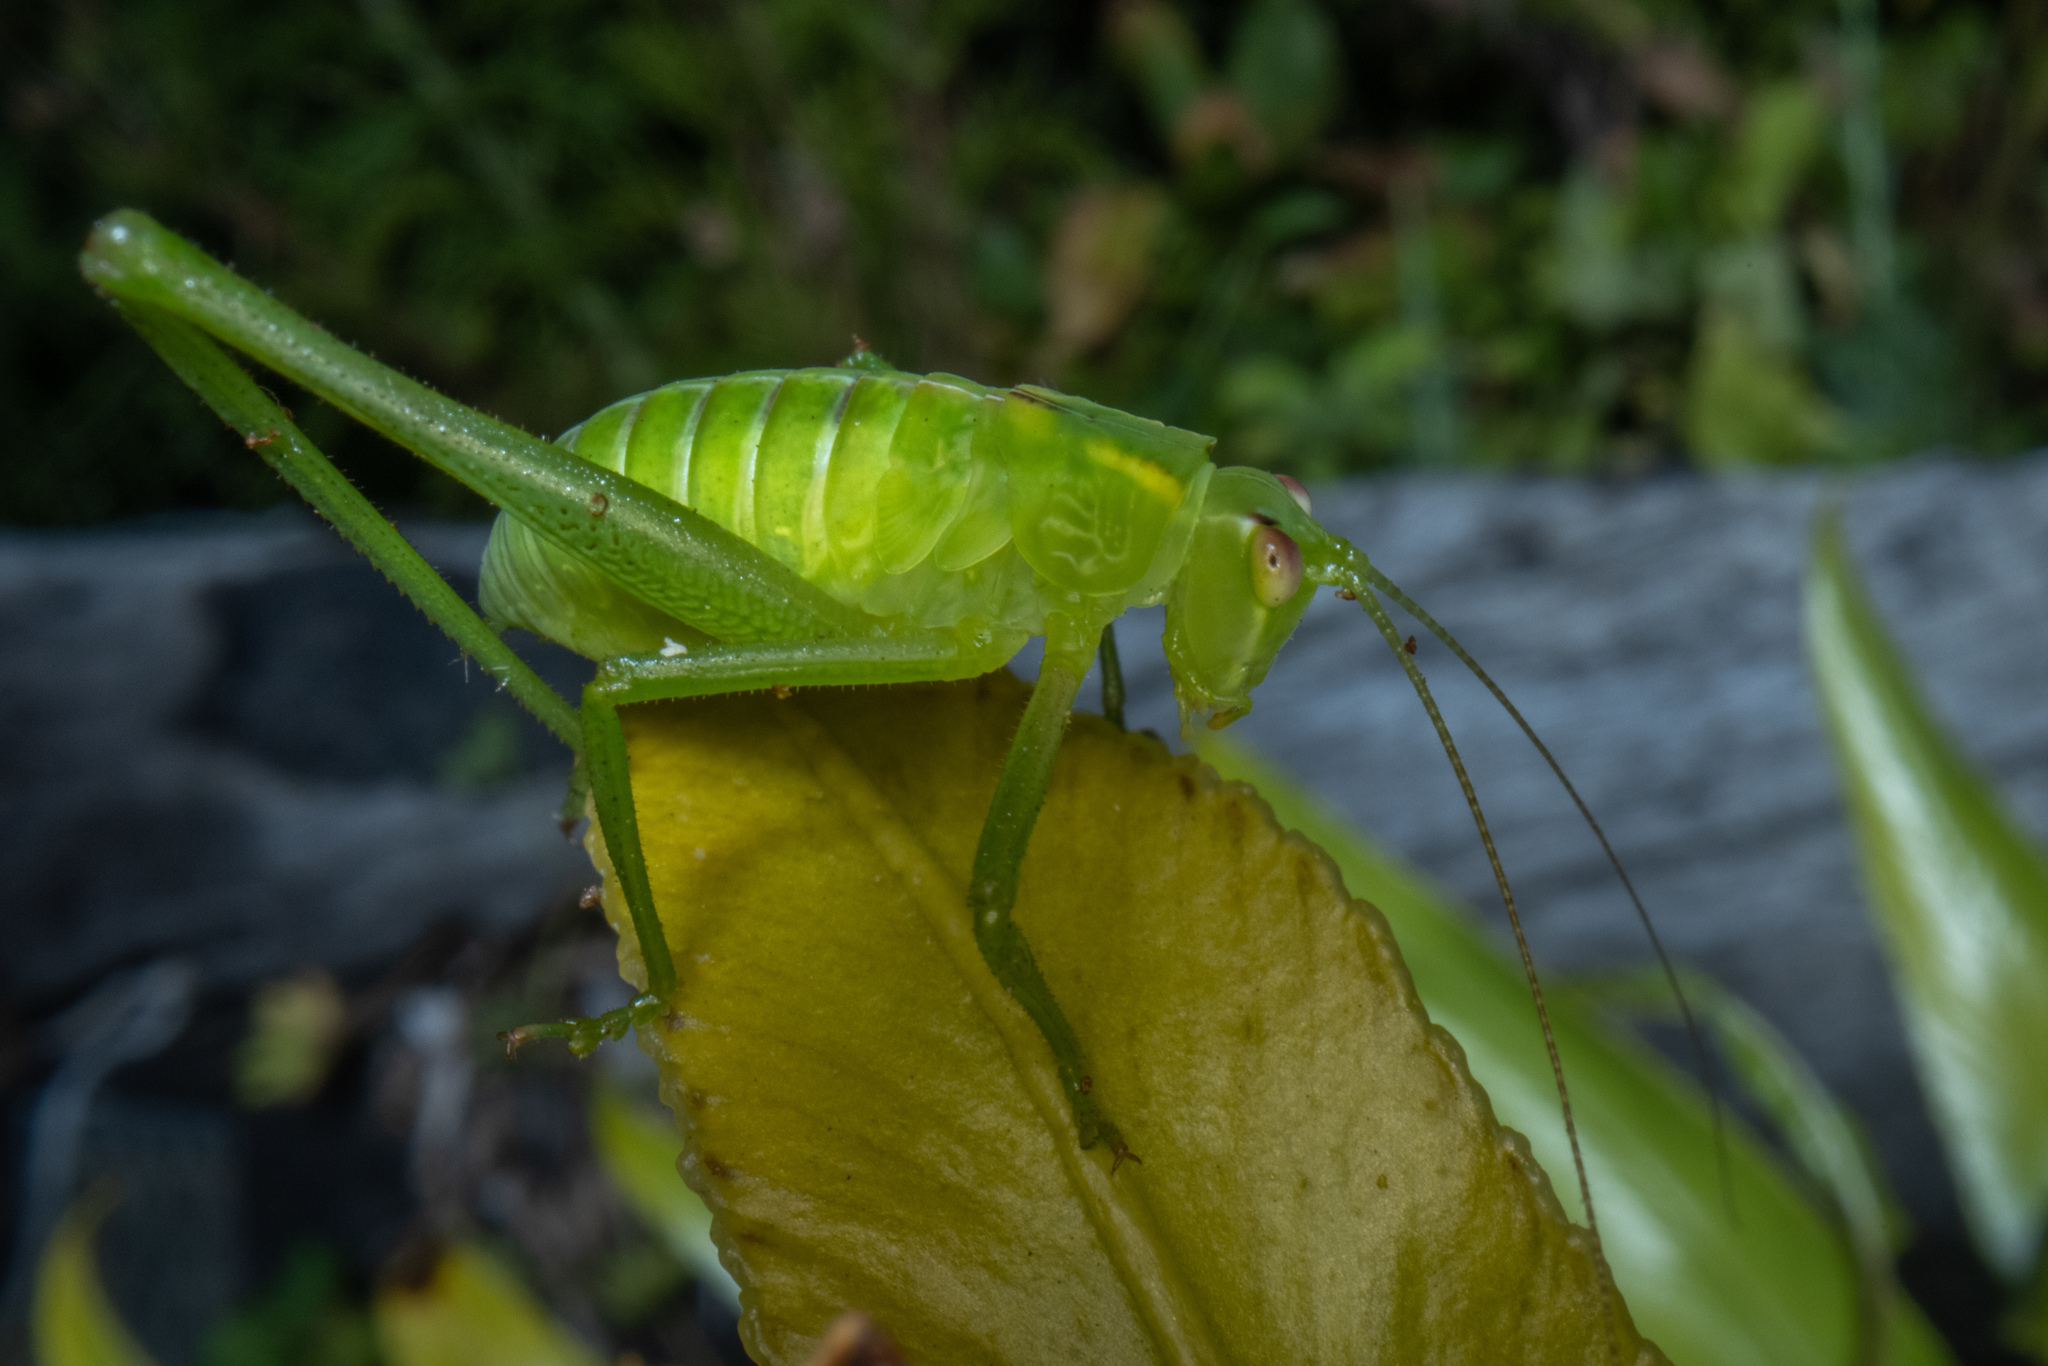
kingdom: Animalia
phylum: Arthropoda
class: Insecta
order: Orthoptera
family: Tettigoniidae
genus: Caedicia
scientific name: Caedicia simplex
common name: Common garden katydid
